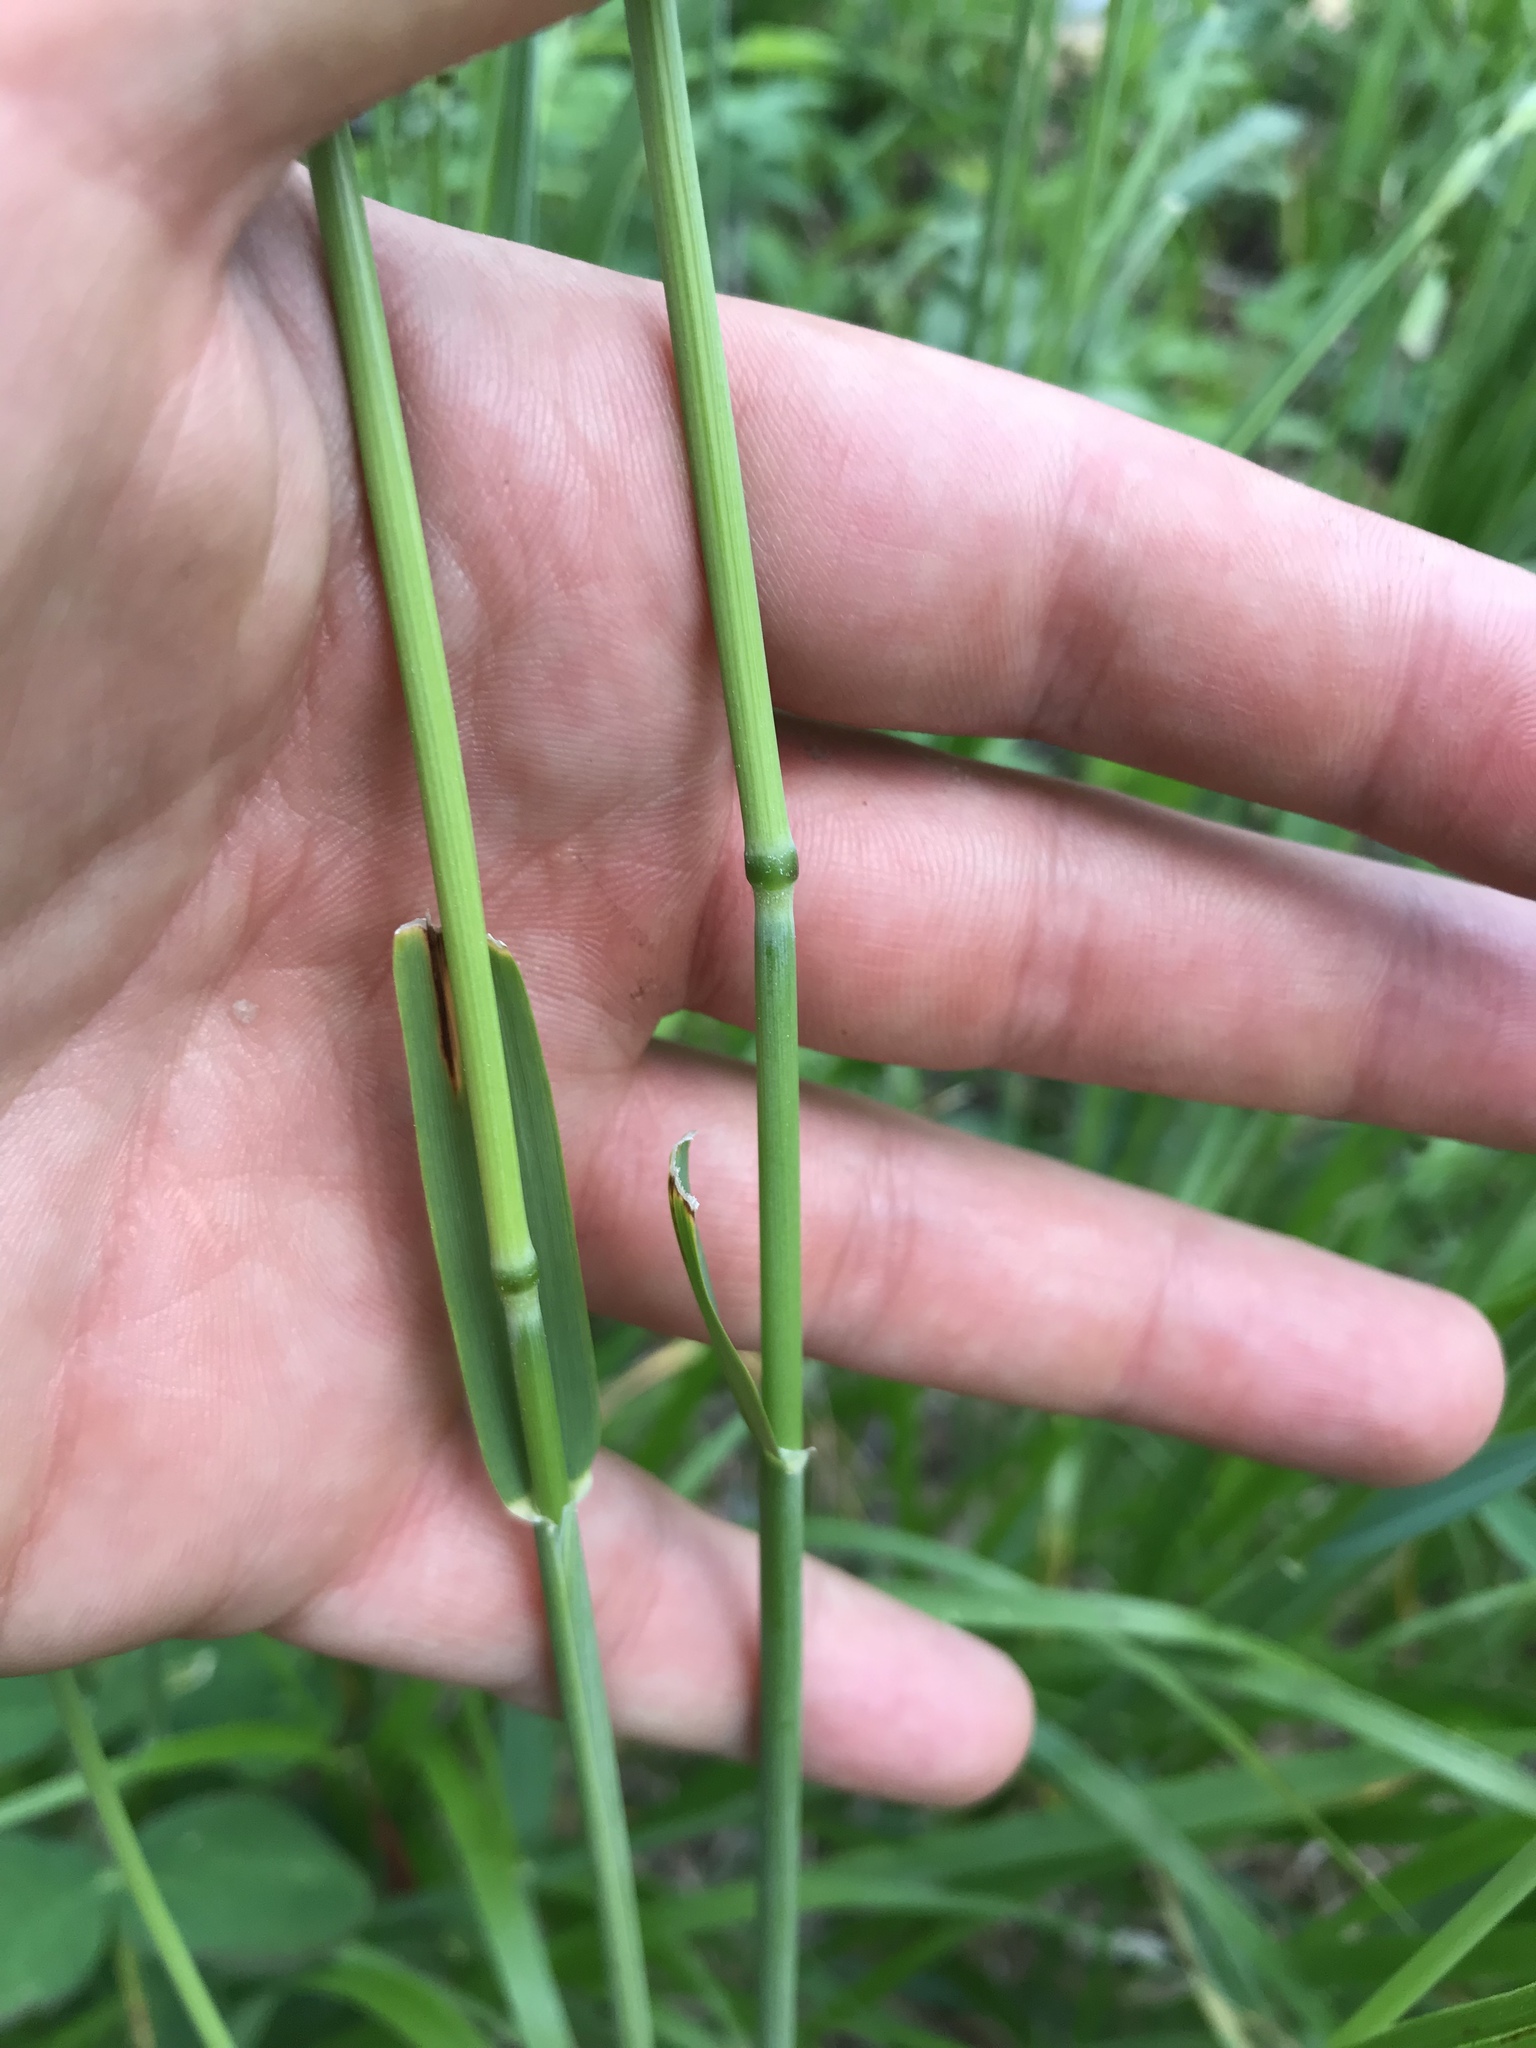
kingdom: Plantae
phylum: Tracheophyta
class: Liliopsida
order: Poales
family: Poaceae
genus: Leymus
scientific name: Leymus innovatus
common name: Boreal wild rye
